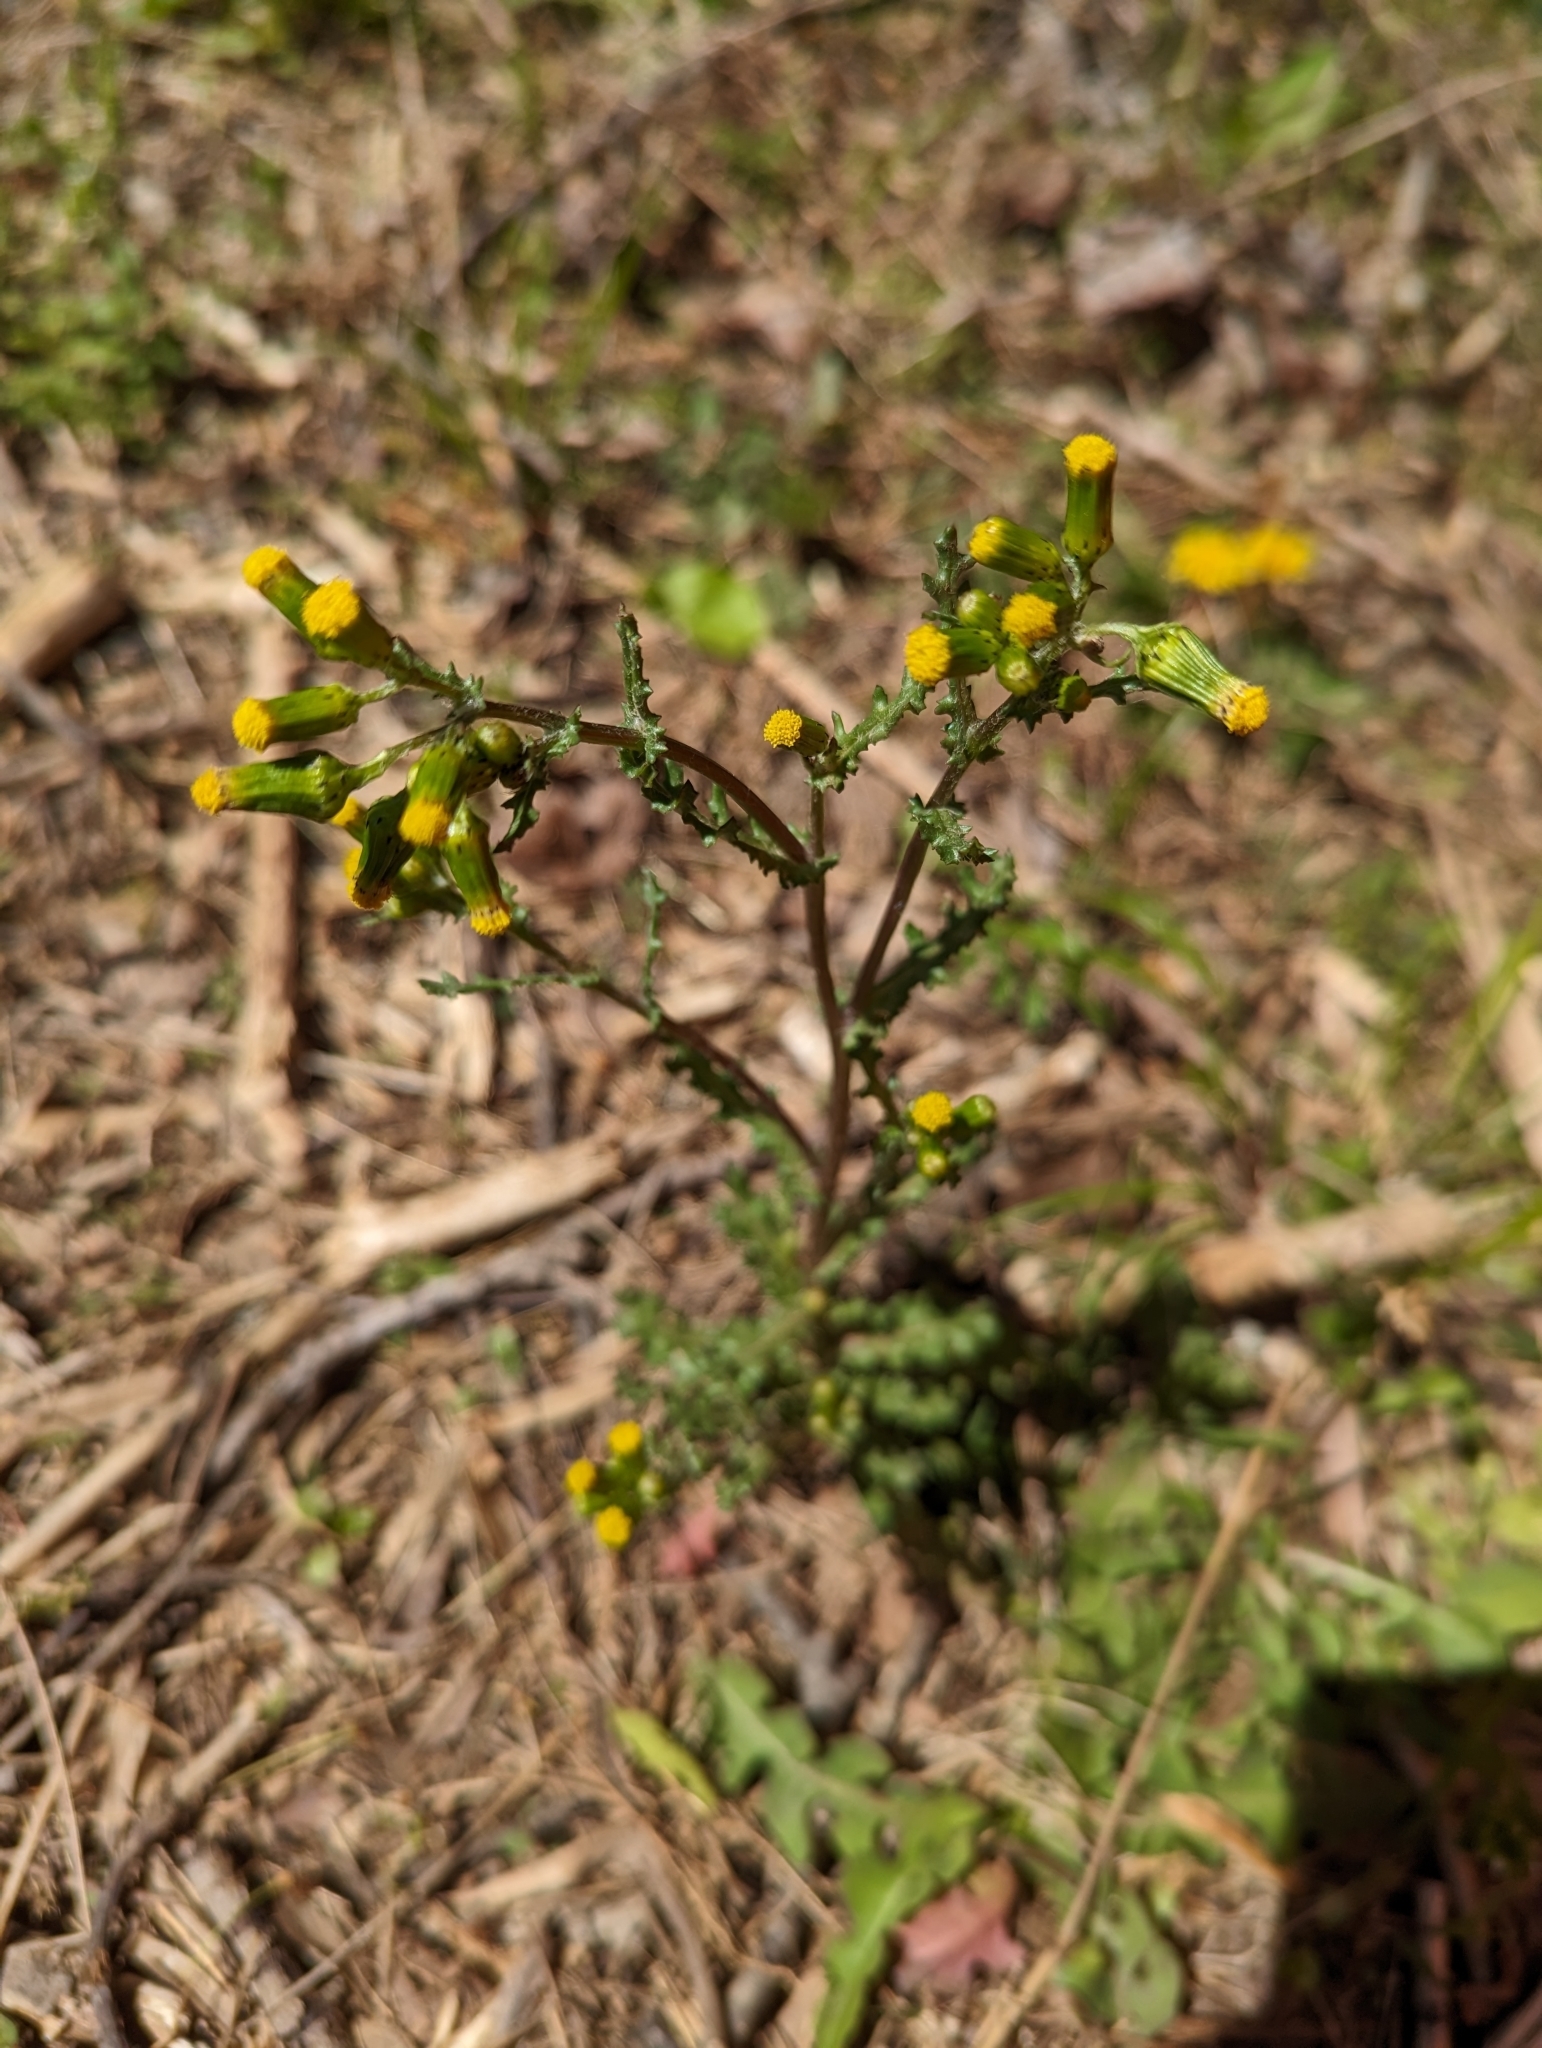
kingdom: Plantae
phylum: Tracheophyta
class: Magnoliopsida
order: Asterales
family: Asteraceae
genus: Senecio
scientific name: Senecio vulgaris
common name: Old-man-in-the-spring
